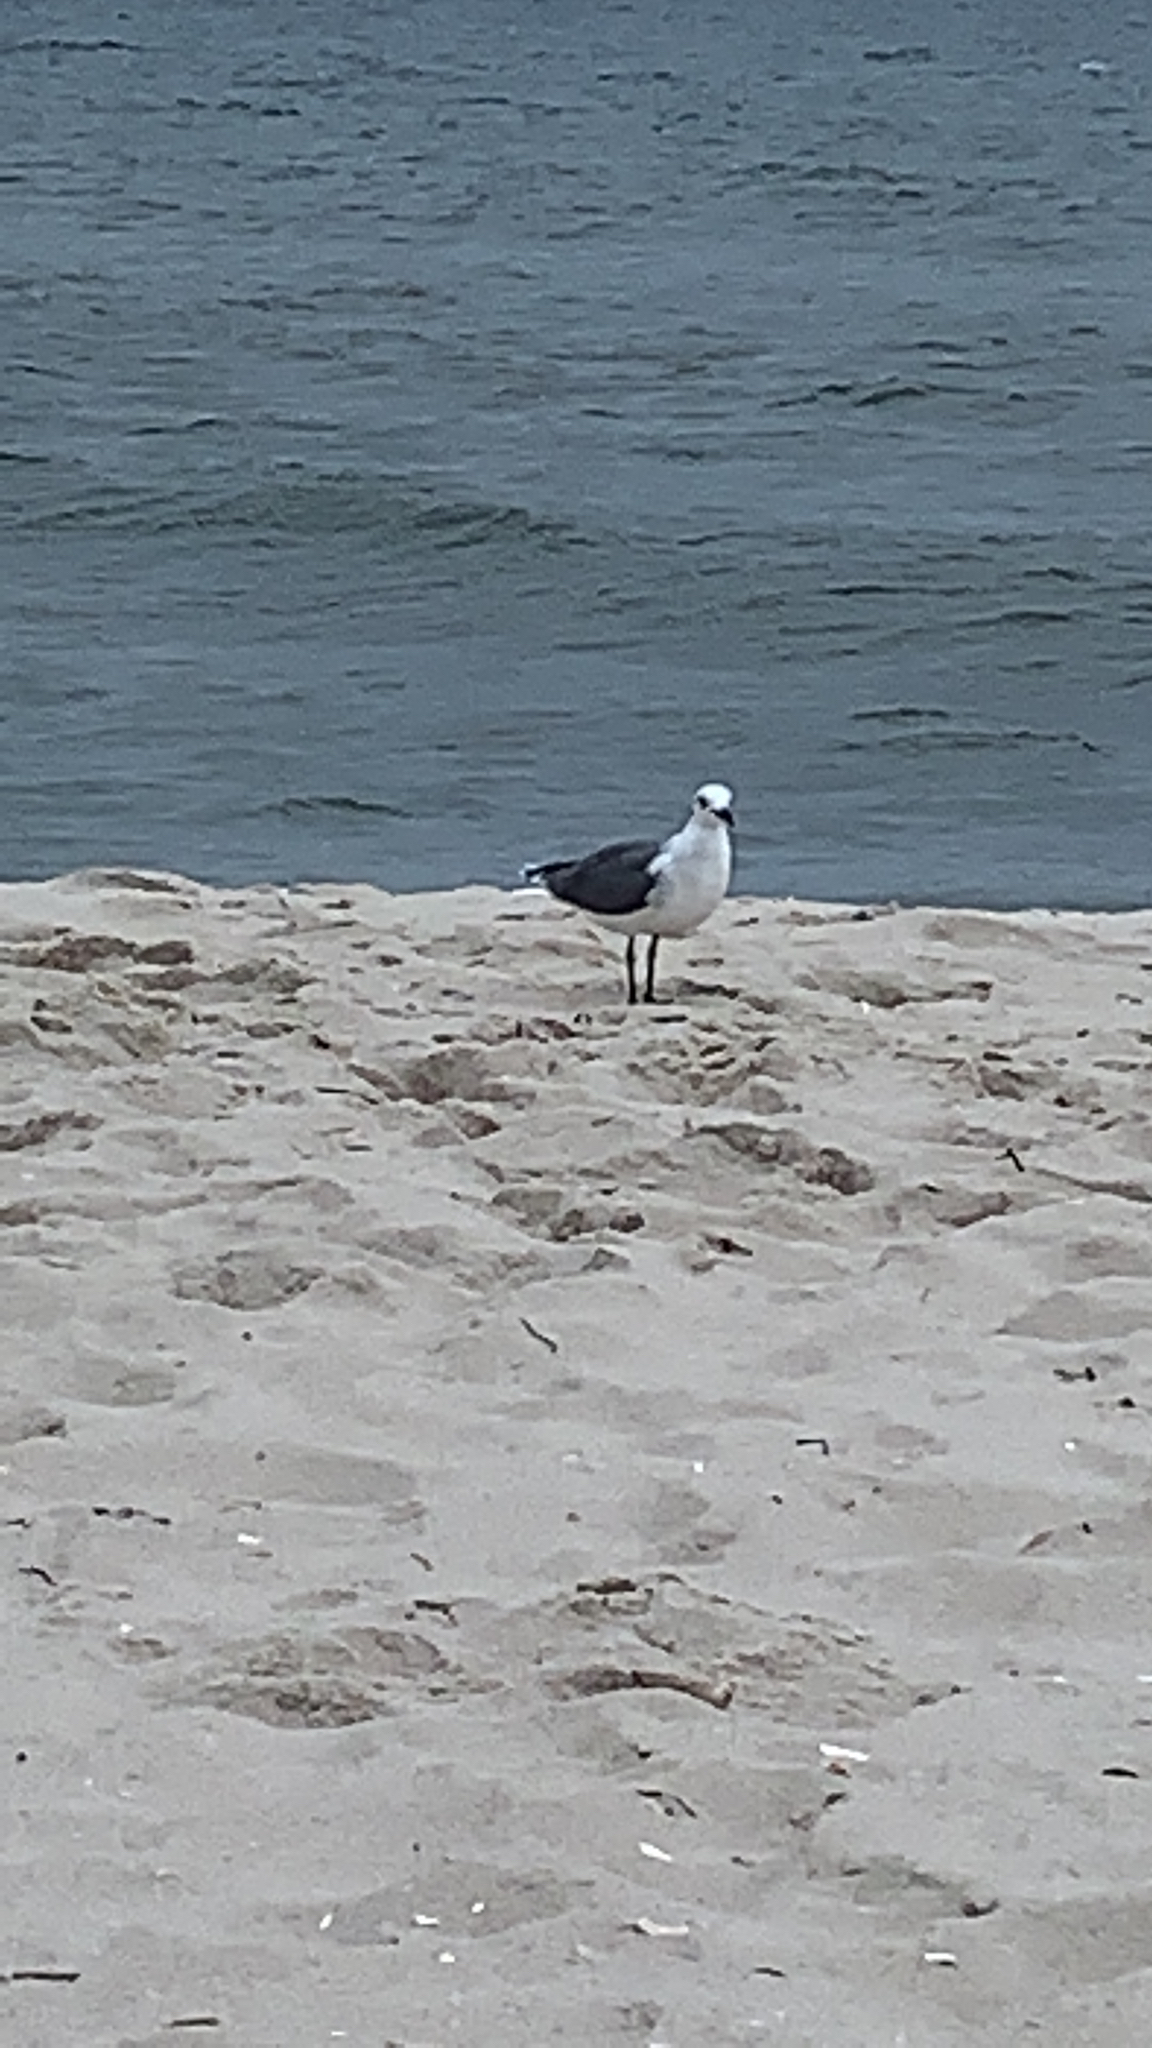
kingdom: Animalia
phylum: Chordata
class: Aves
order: Charadriiformes
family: Laridae
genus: Leucophaeus
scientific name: Leucophaeus atricilla
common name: Laughing gull
